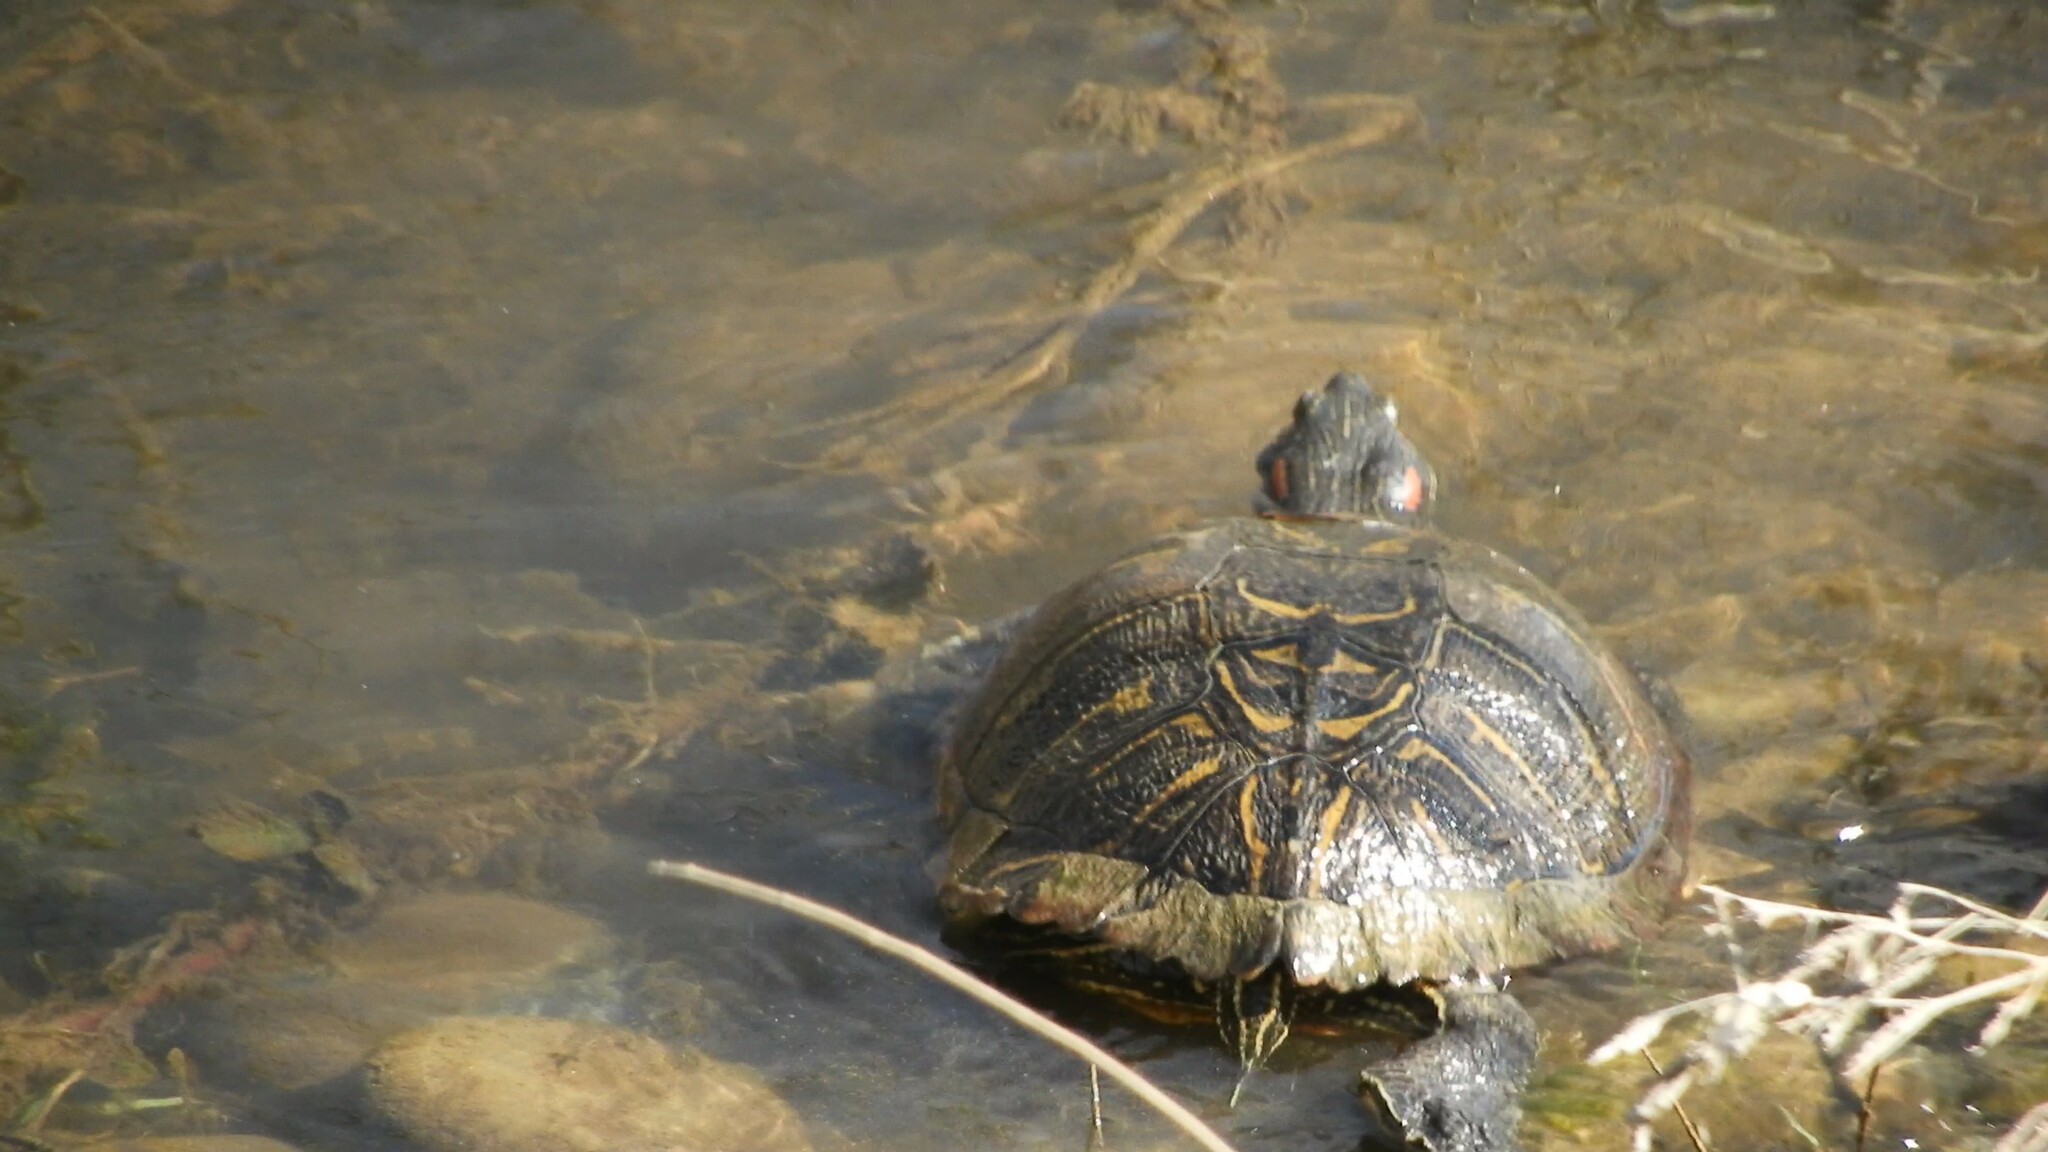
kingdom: Animalia
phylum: Chordata
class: Testudines
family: Emydidae
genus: Trachemys
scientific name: Trachemys scripta
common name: Slider
